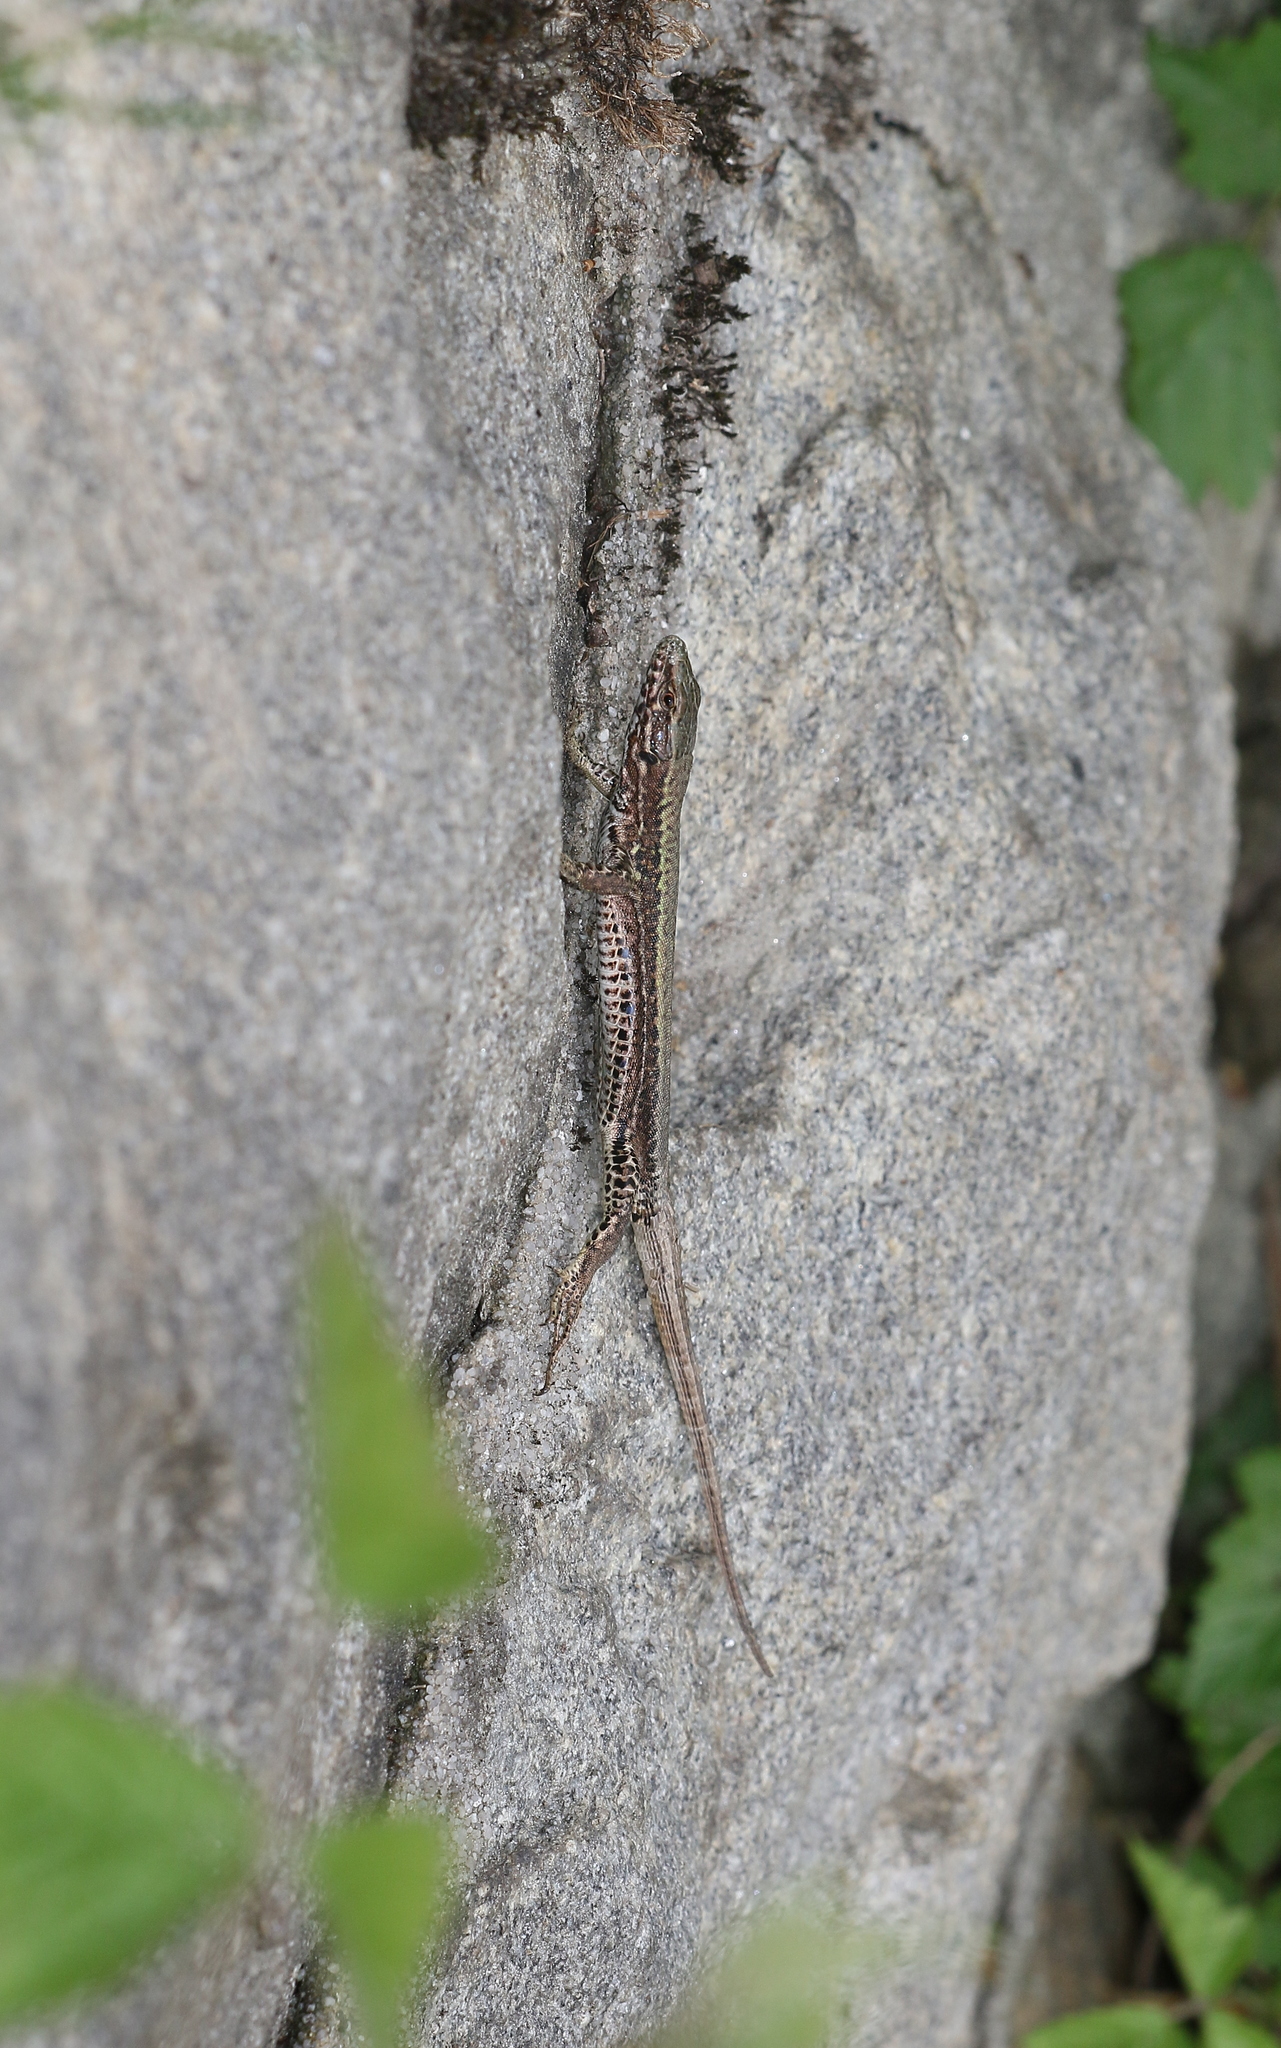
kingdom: Animalia
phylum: Chordata
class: Squamata
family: Lacertidae
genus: Podarcis
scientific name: Podarcis muralis
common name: Common wall lizard
